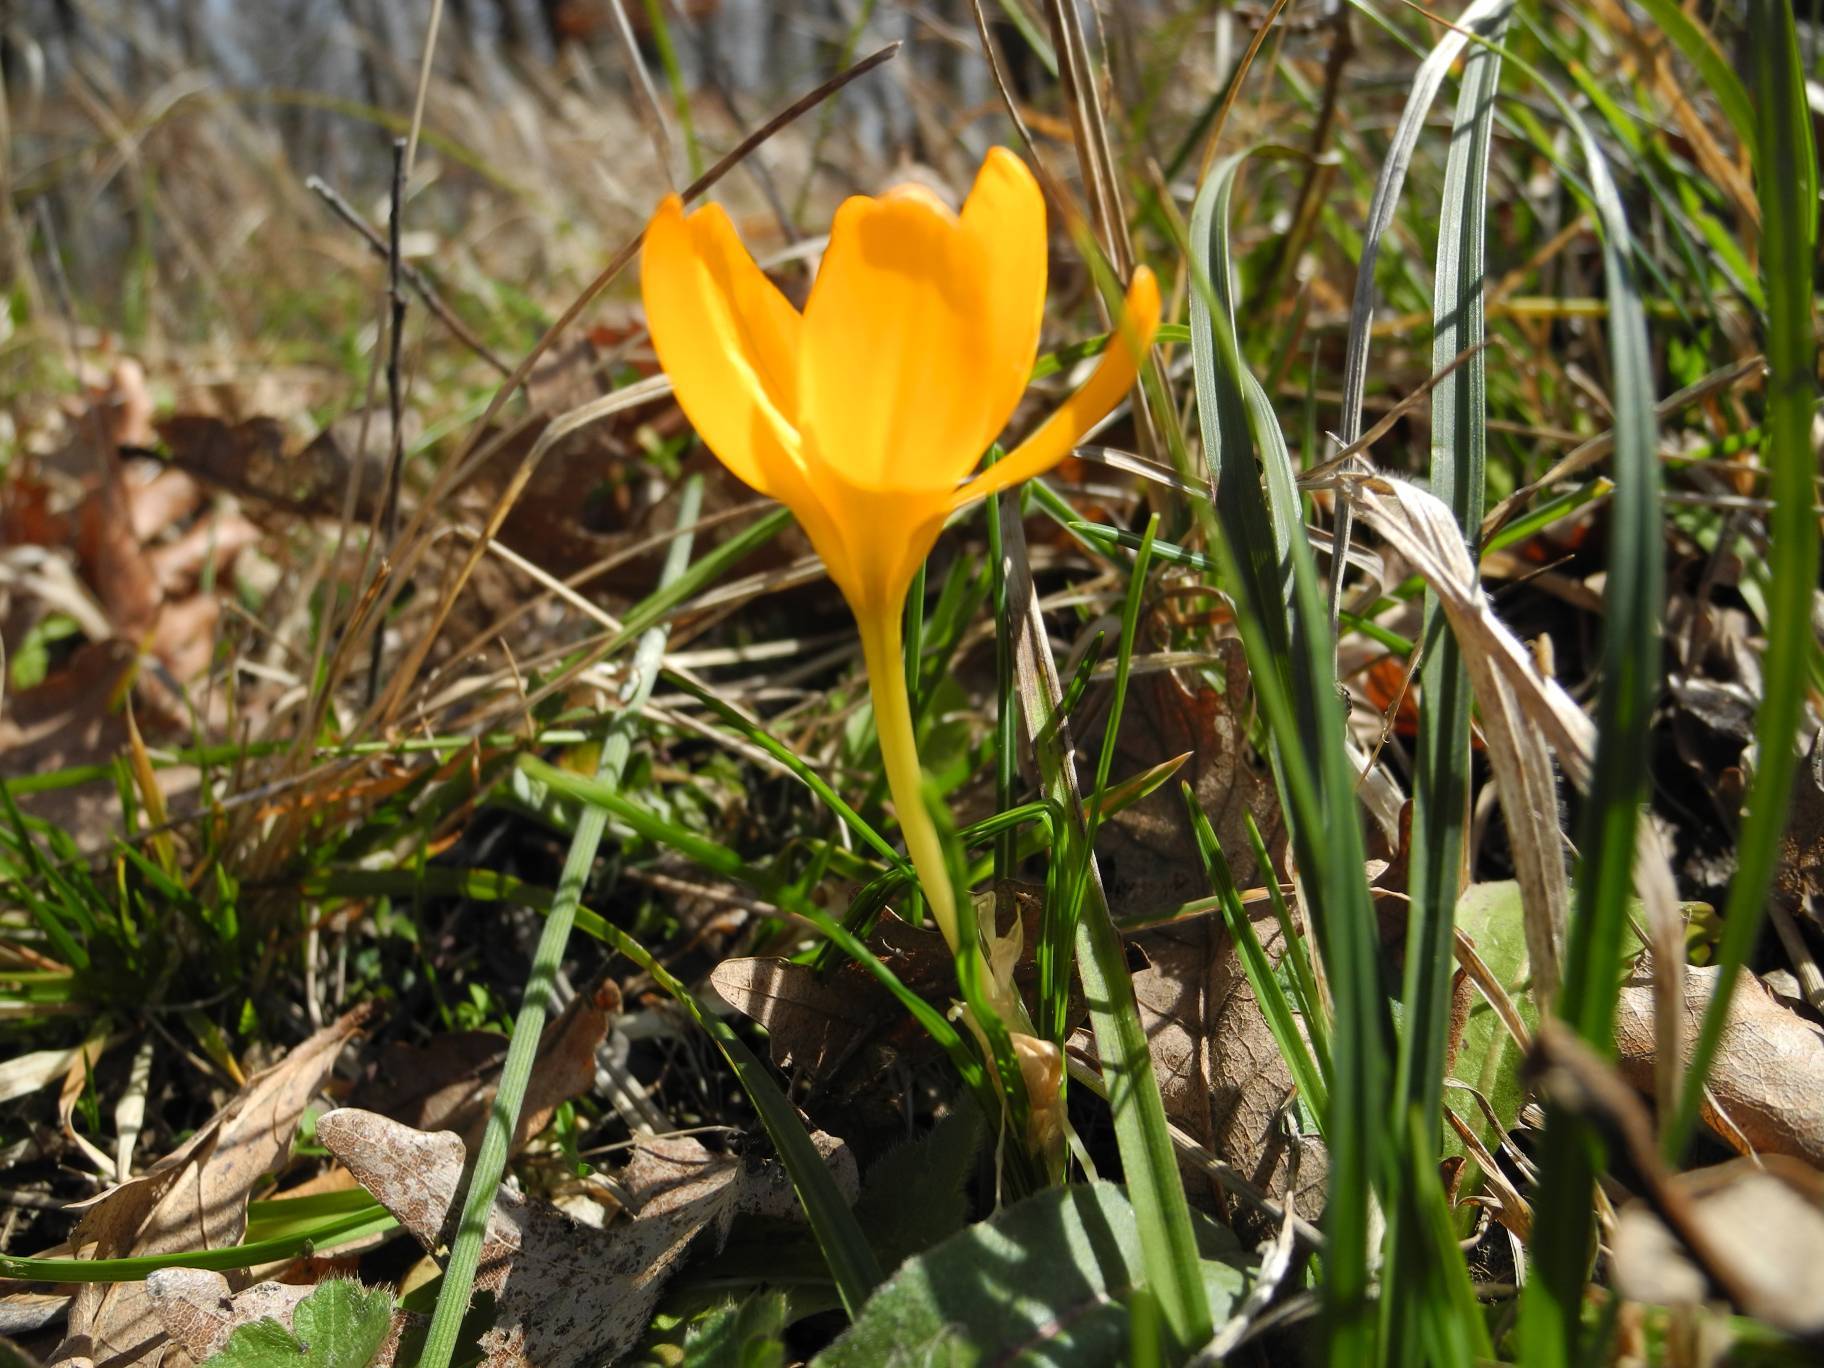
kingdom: Plantae
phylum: Tracheophyta
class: Liliopsida
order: Asparagales
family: Iridaceae
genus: Crocus
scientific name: Crocus flavus
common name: Yellow crocus
